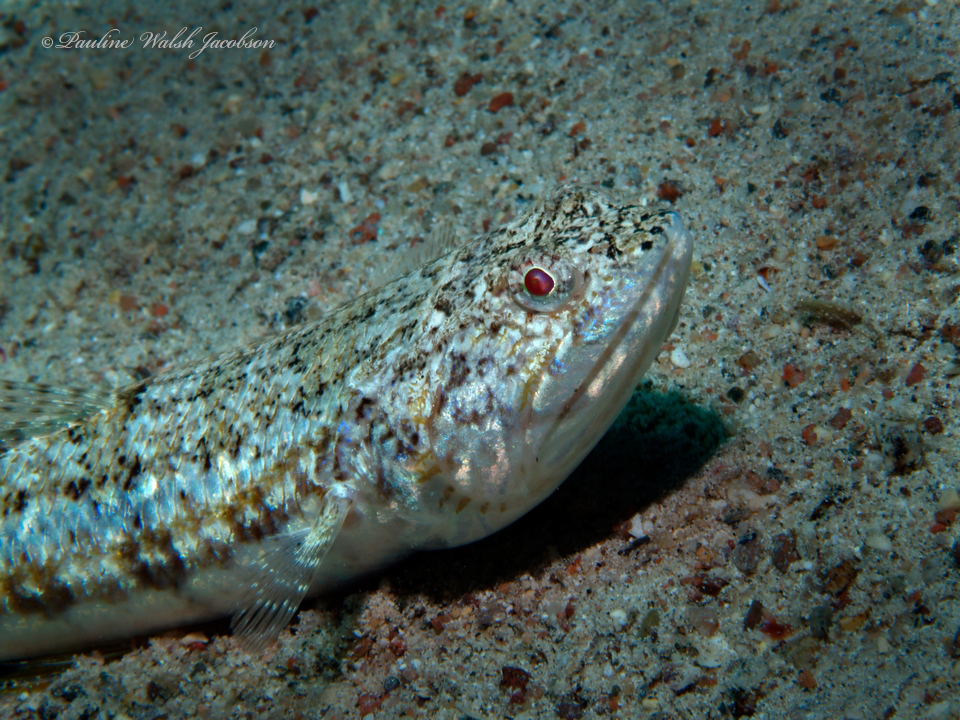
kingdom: Animalia
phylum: Chordata
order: Aulopiformes
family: Synodontidae
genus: Synodus
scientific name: Synodus dermatogenys
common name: Banded lizardfish
